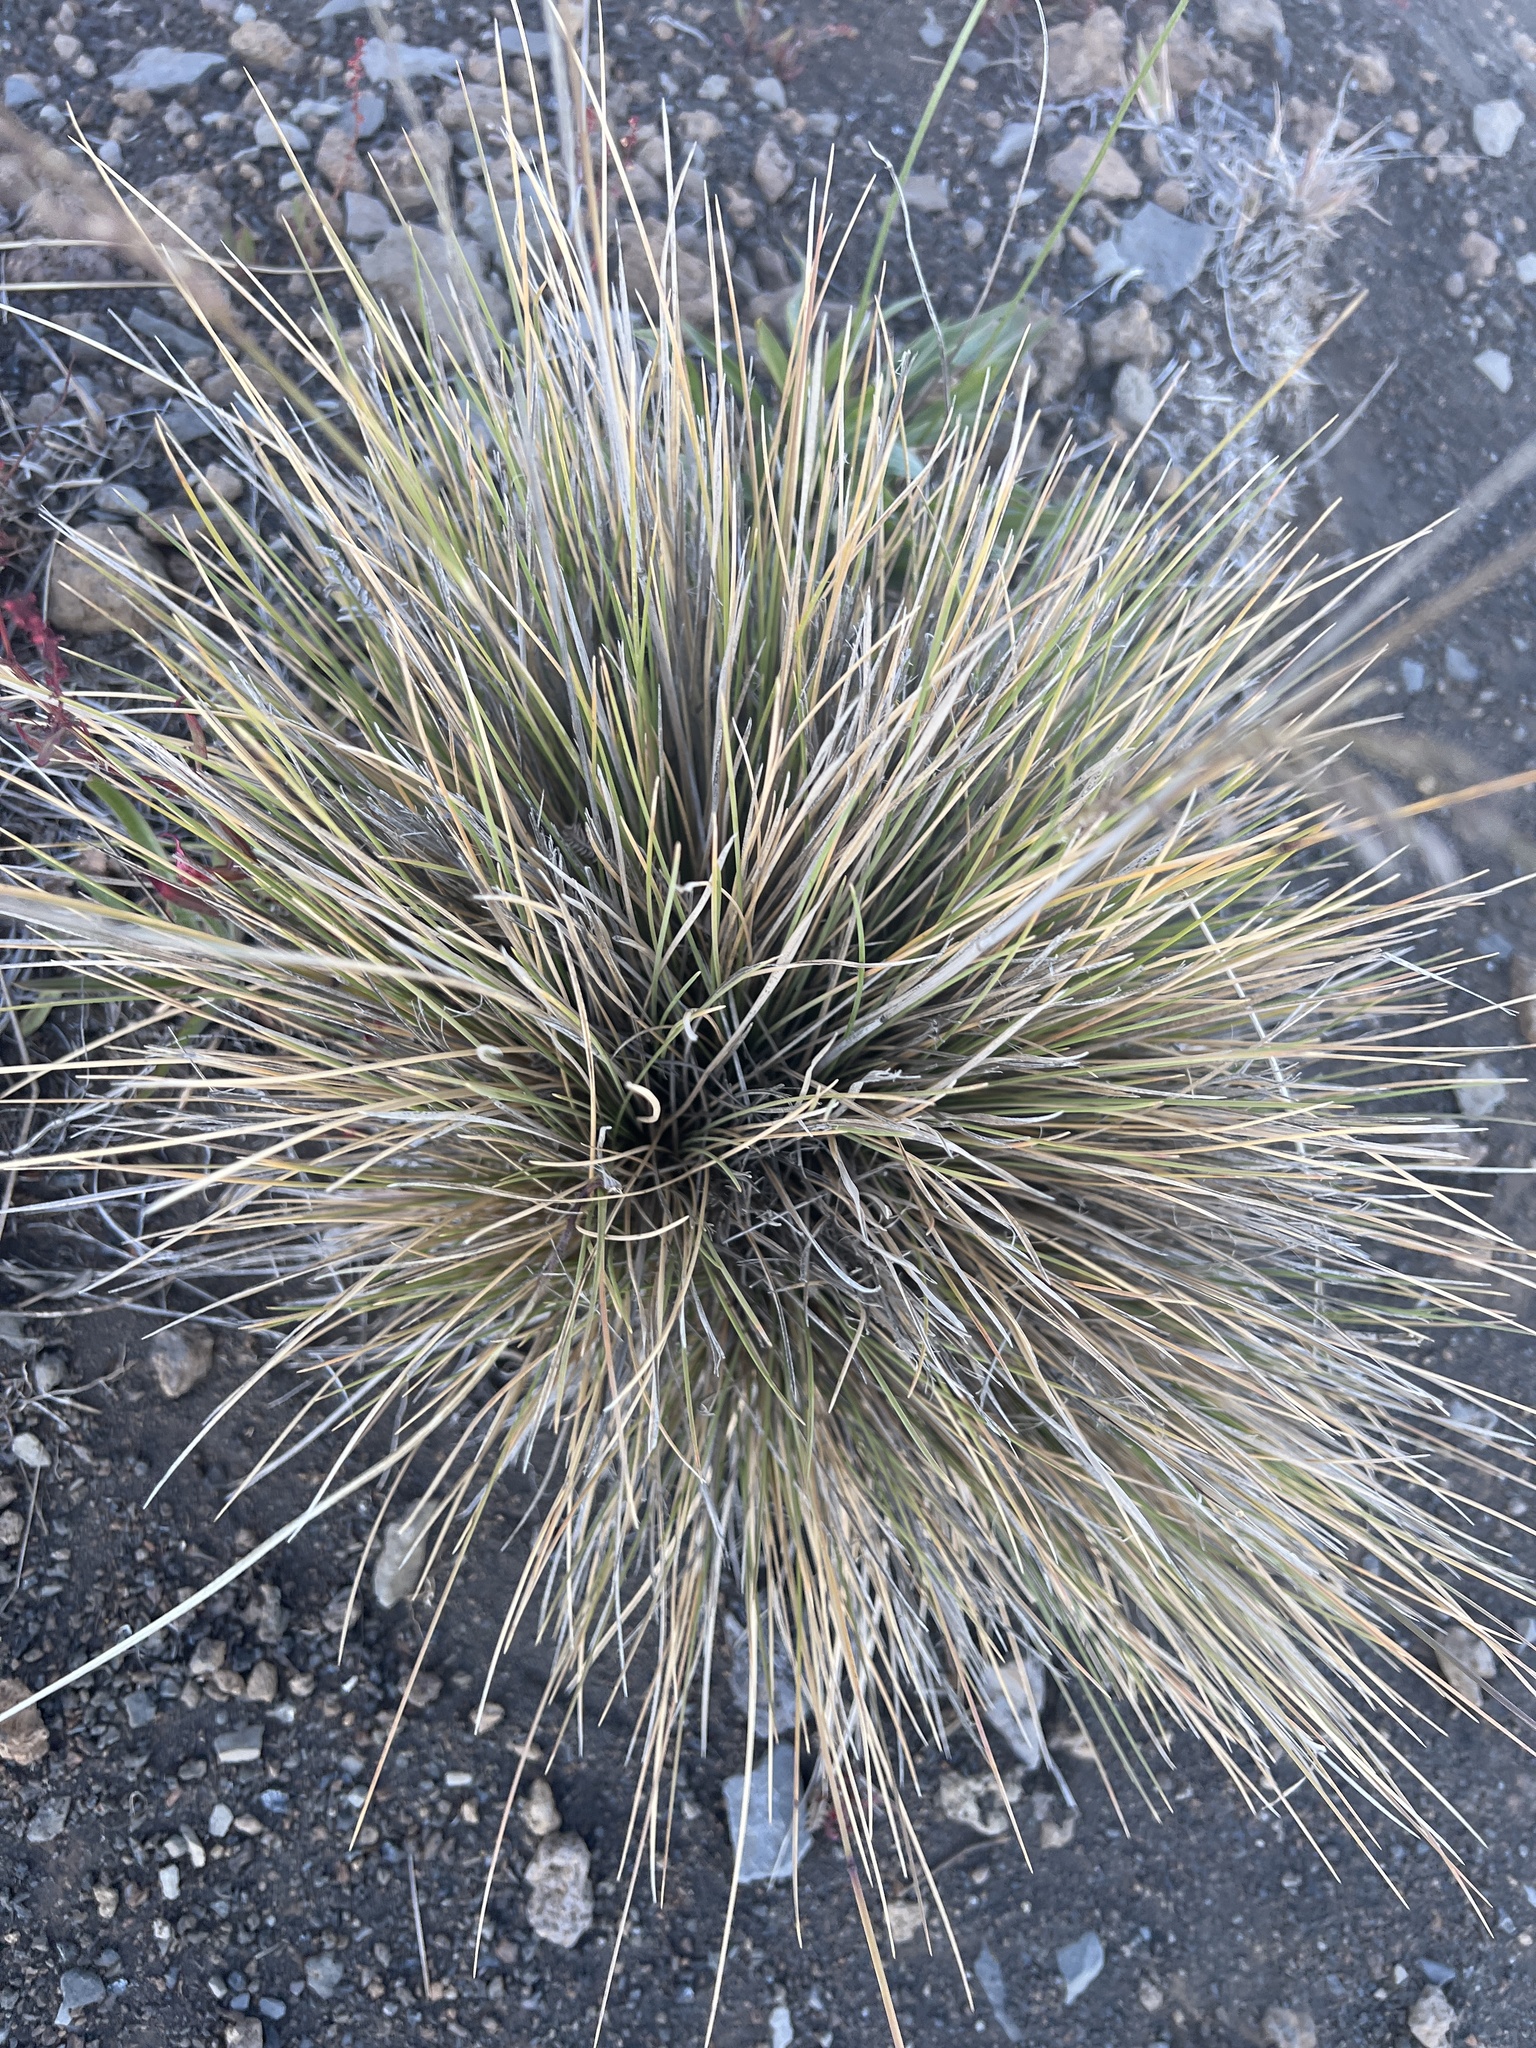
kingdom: Plantae
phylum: Tracheophyta
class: Liliopsida
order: Poales
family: Poaceae
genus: Deschampsia
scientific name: Deschampsia nubigena
